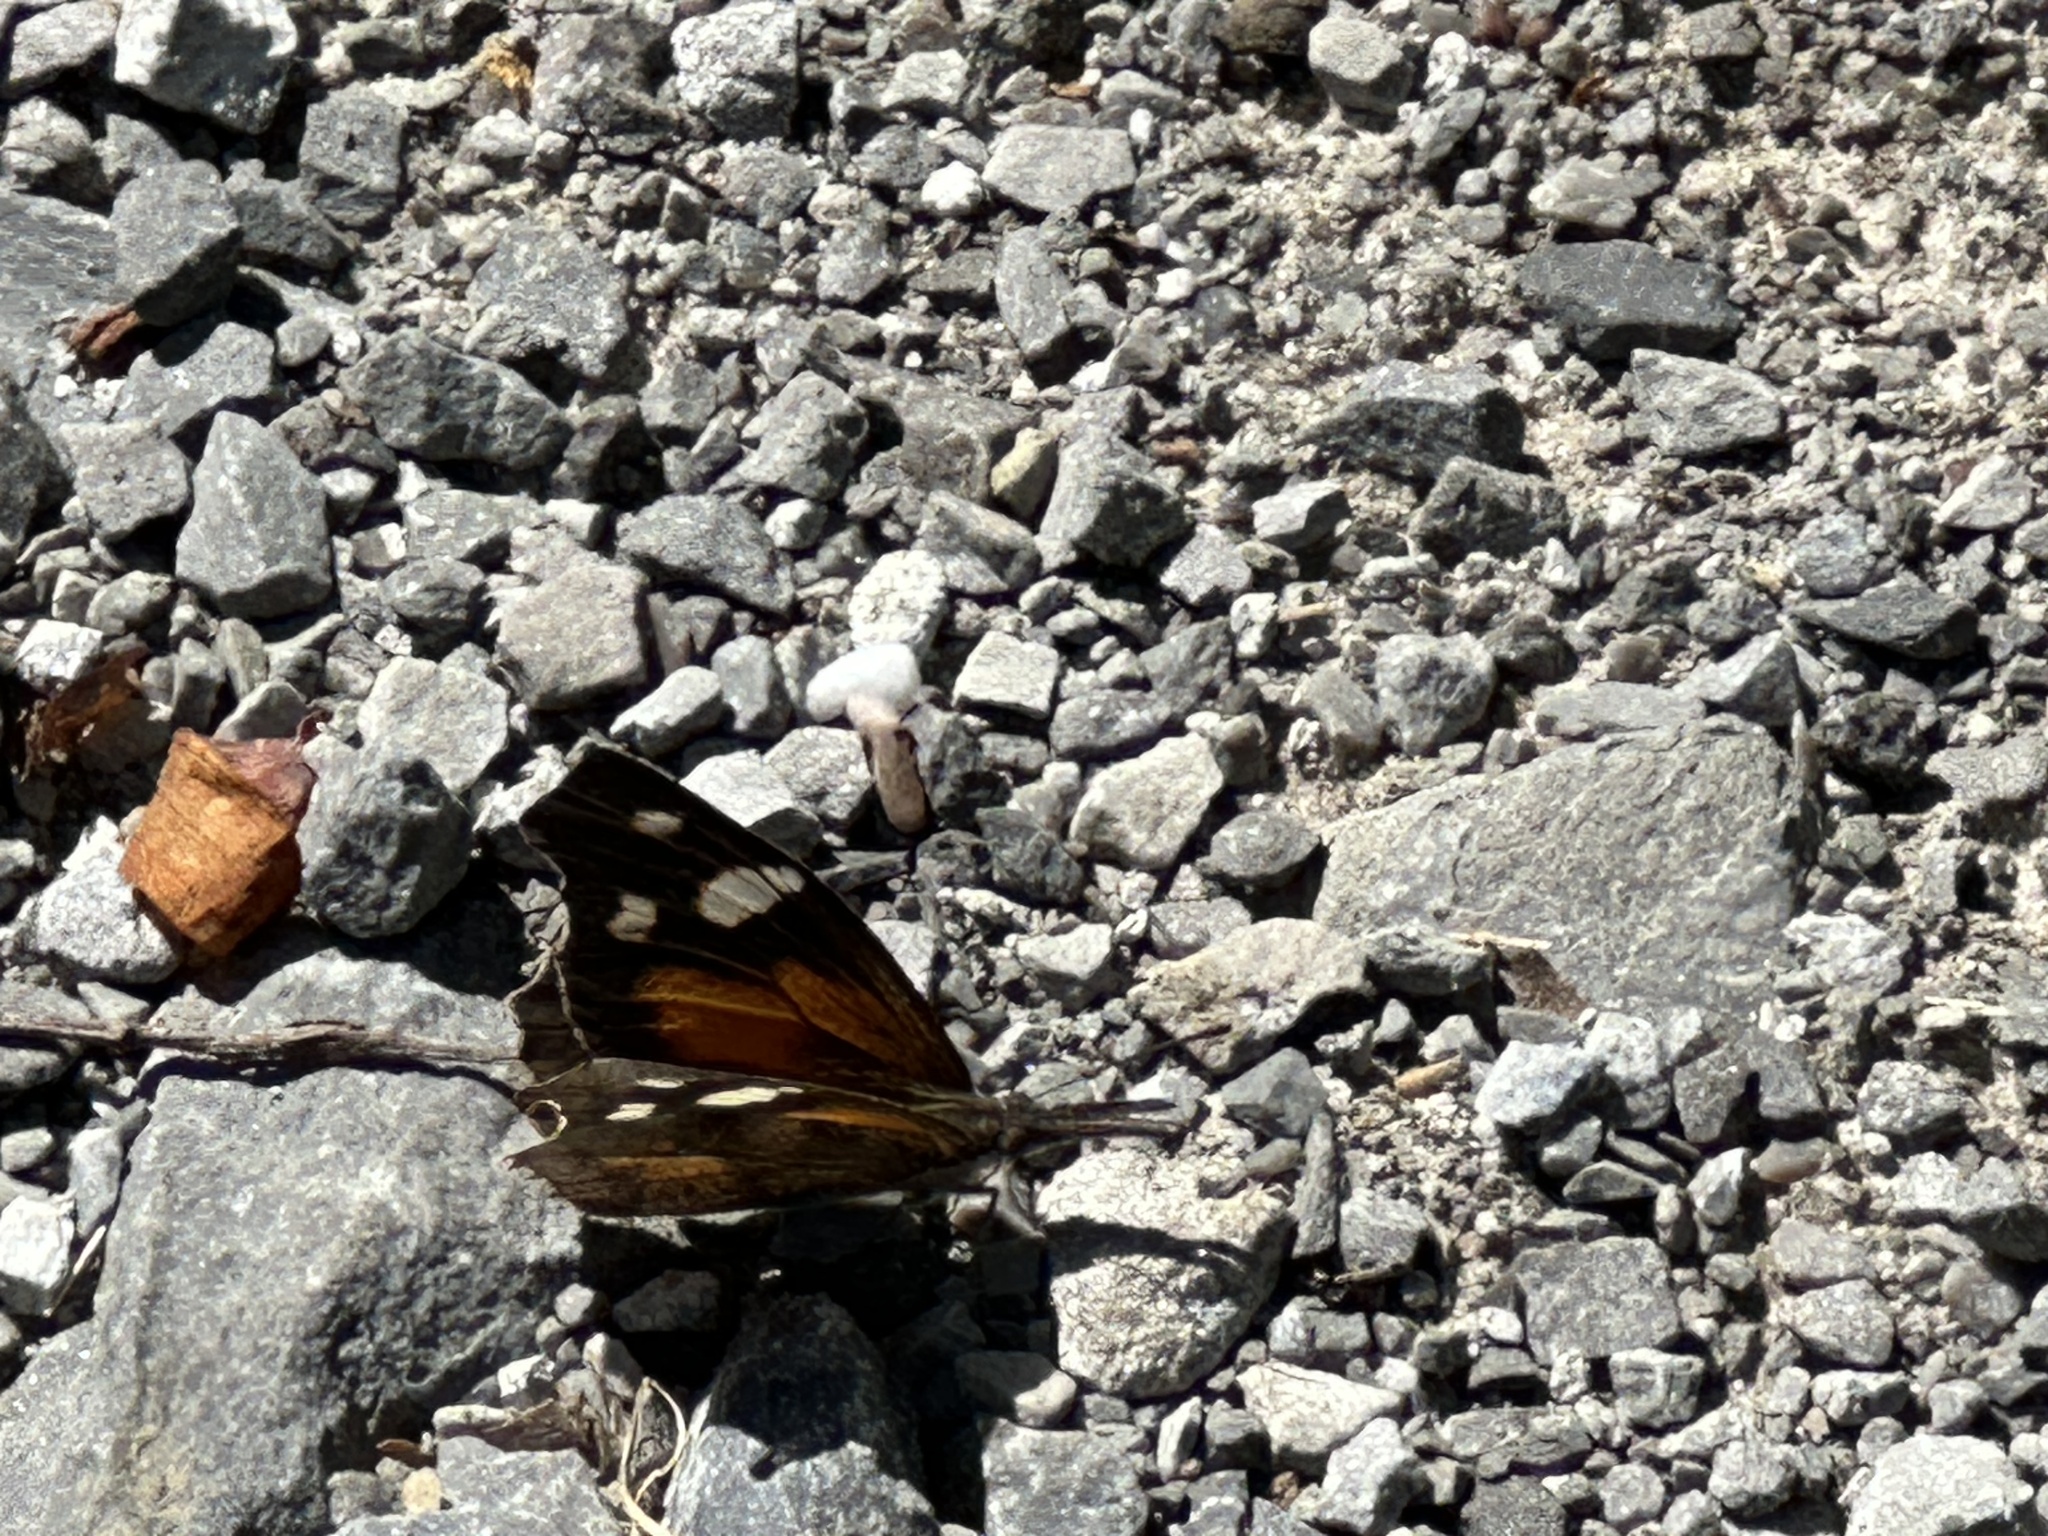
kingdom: Animalia
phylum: Arthropoda
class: Insecta
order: Lepidoptera
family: Nymphalidae
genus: Libytheana
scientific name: Libytheana carinenta
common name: American snout
